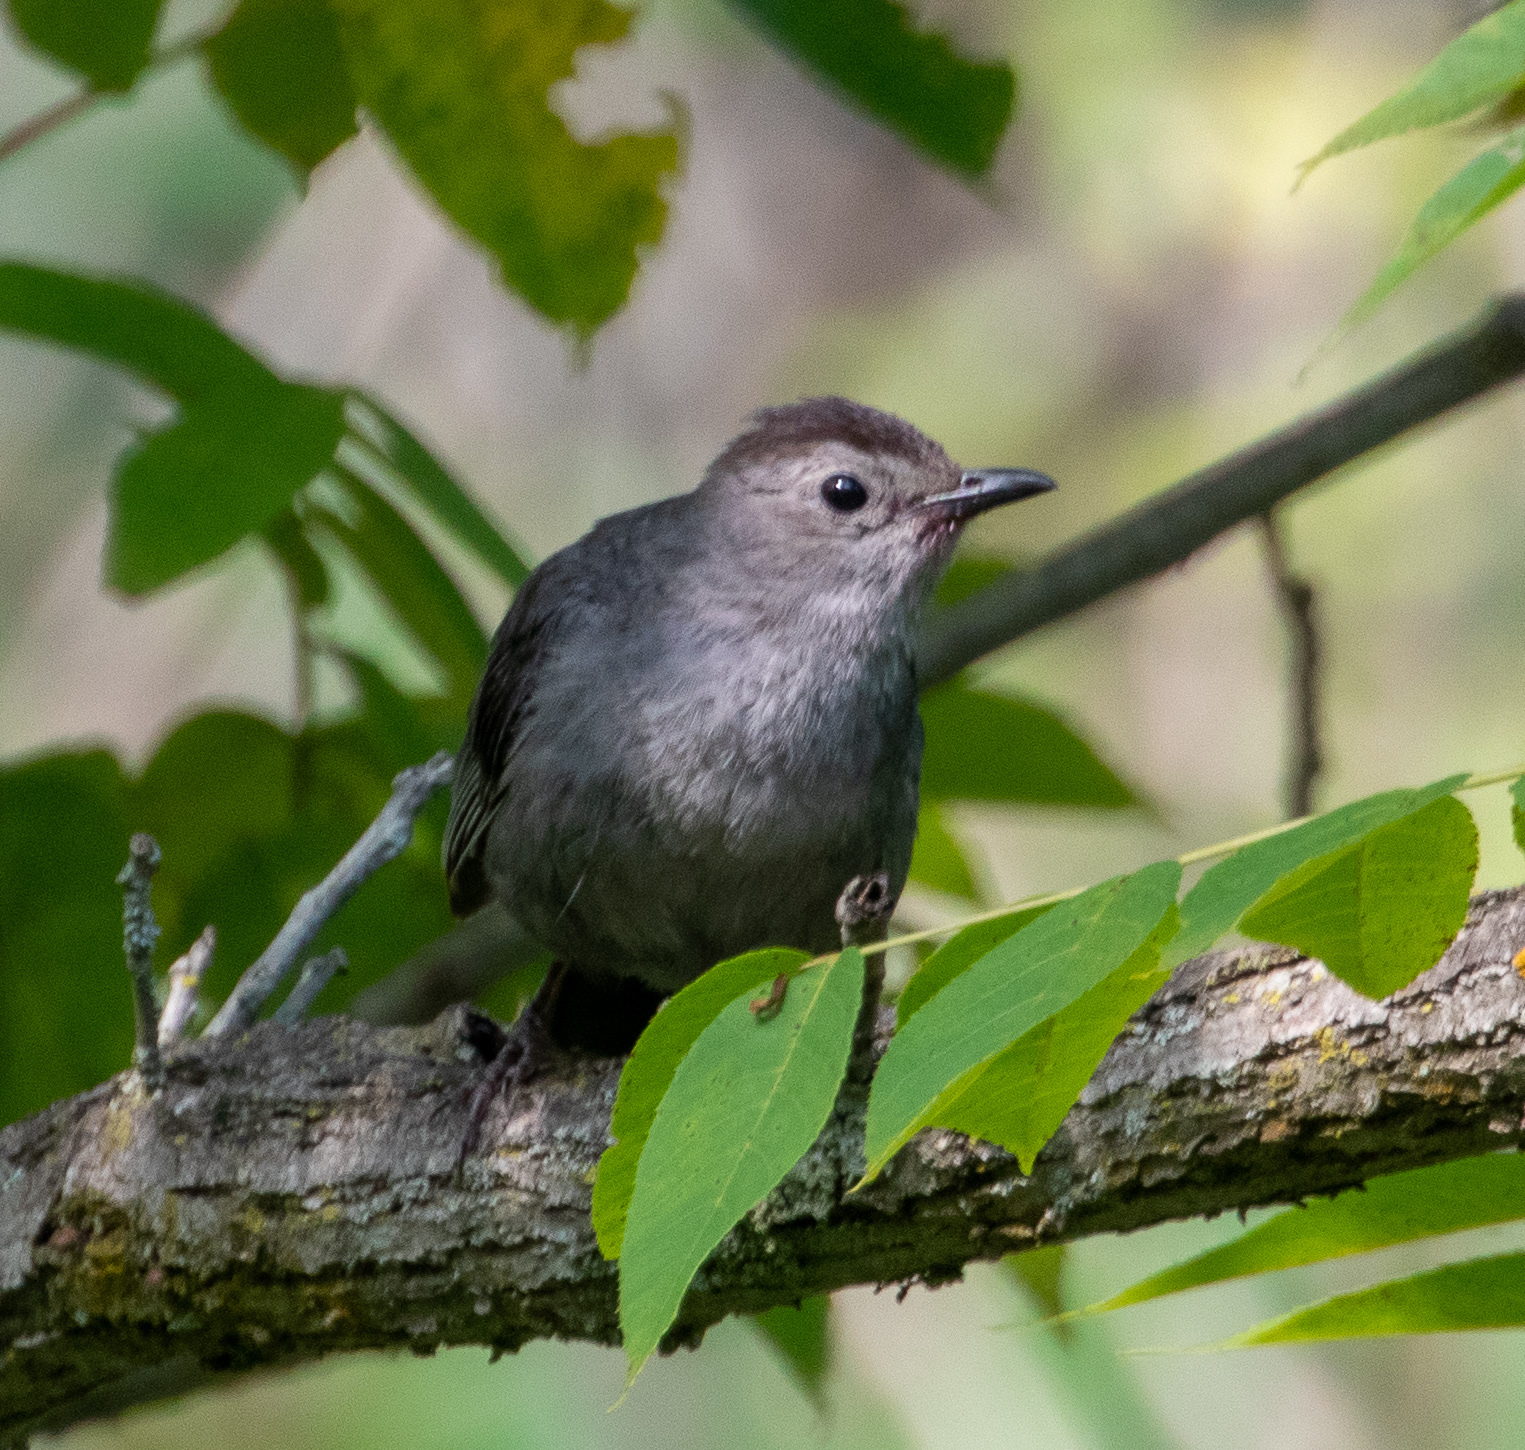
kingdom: Animalia
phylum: Chordata
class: Aves
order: Passeriformes
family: Mimidae
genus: Dumetella
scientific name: Dumetella carolinensis
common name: Gray catbird
